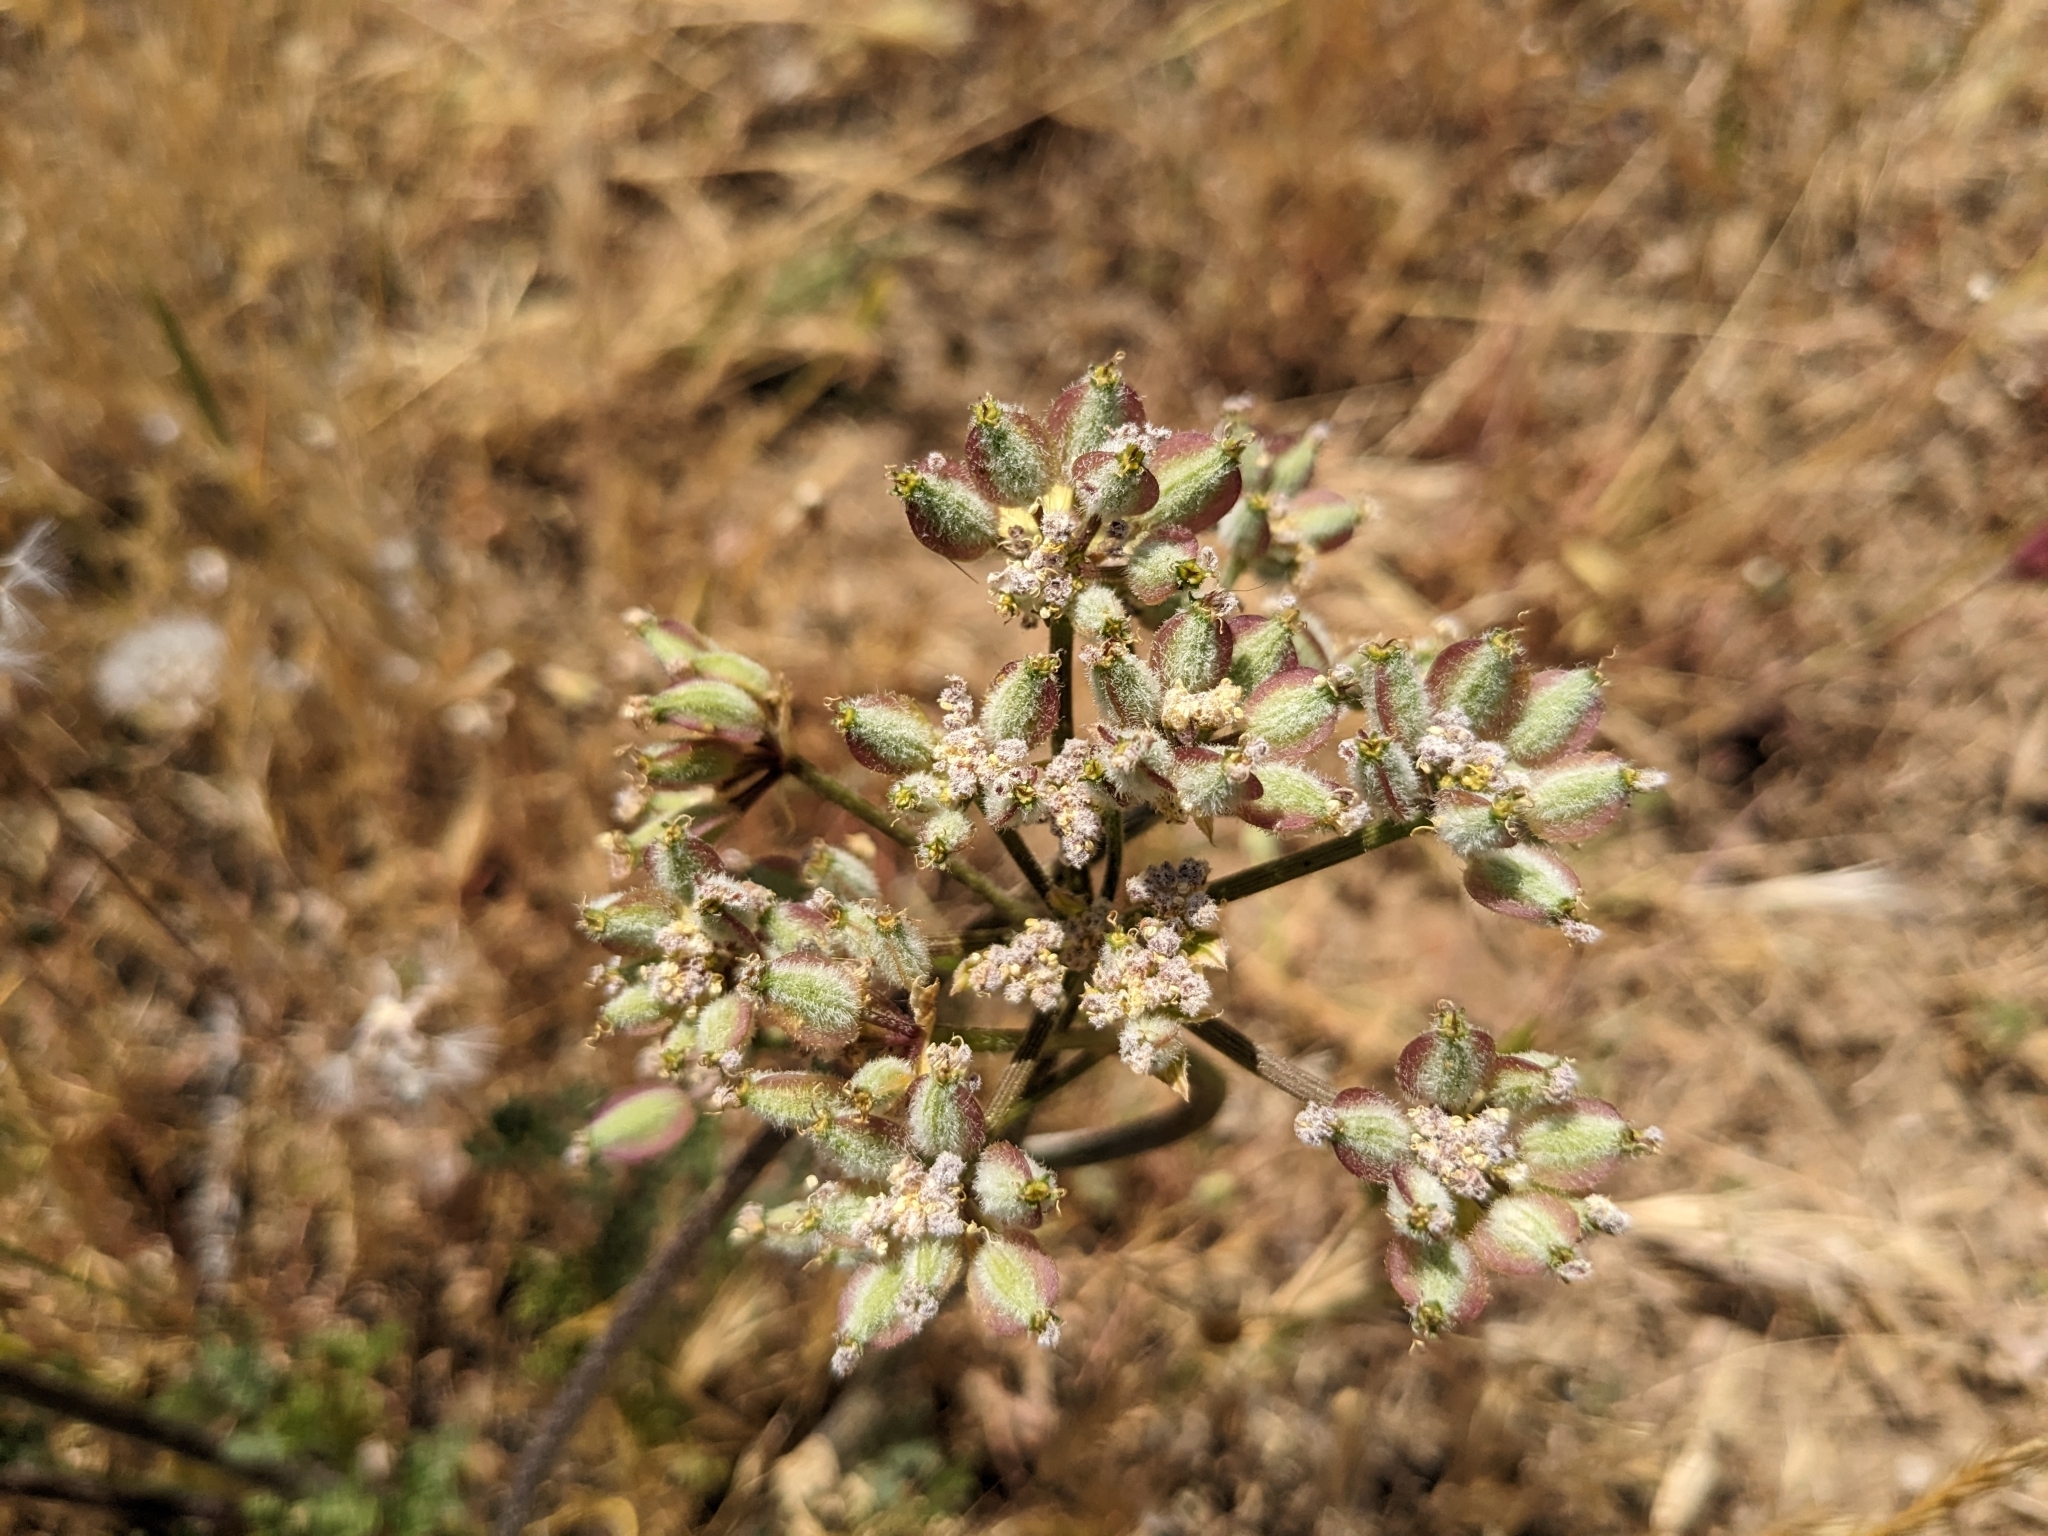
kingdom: Plantae
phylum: Tracheophyta
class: Magnoliopsida
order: Apiales
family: Apiaceae
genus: Lomatium
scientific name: Lomatium dasycarpum
